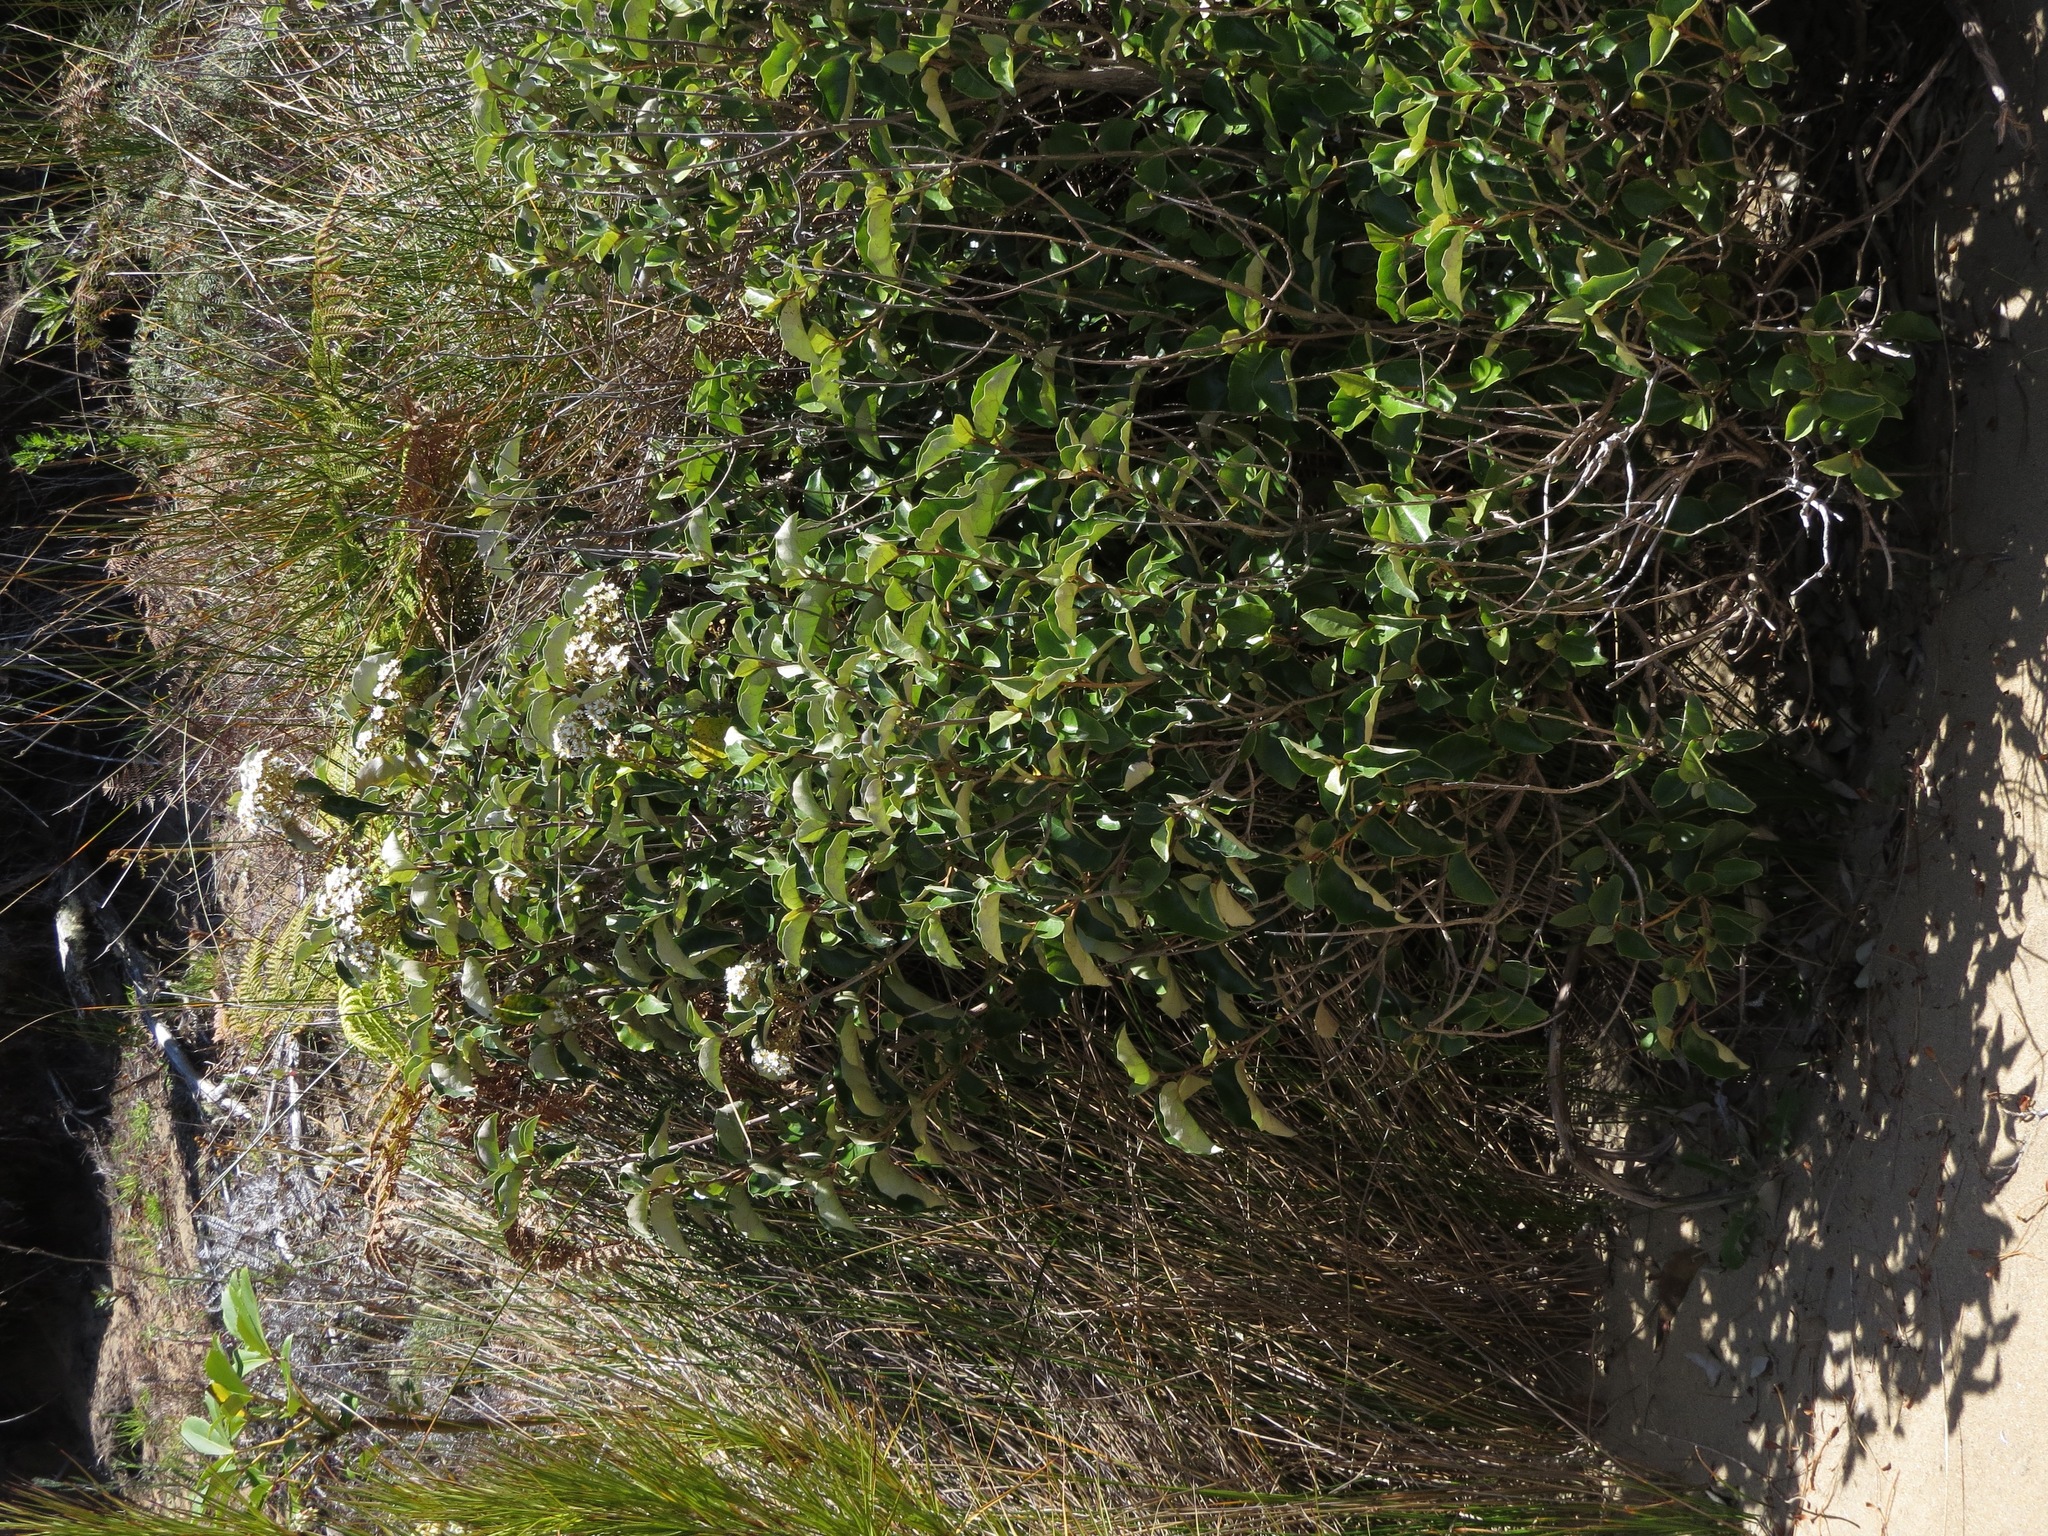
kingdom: Plantae
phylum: Tracheophyta
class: Magnoliopsida
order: Asterales
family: Asteraceae
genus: Olearia
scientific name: Olearia arborescens
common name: Glossy tree daisy
